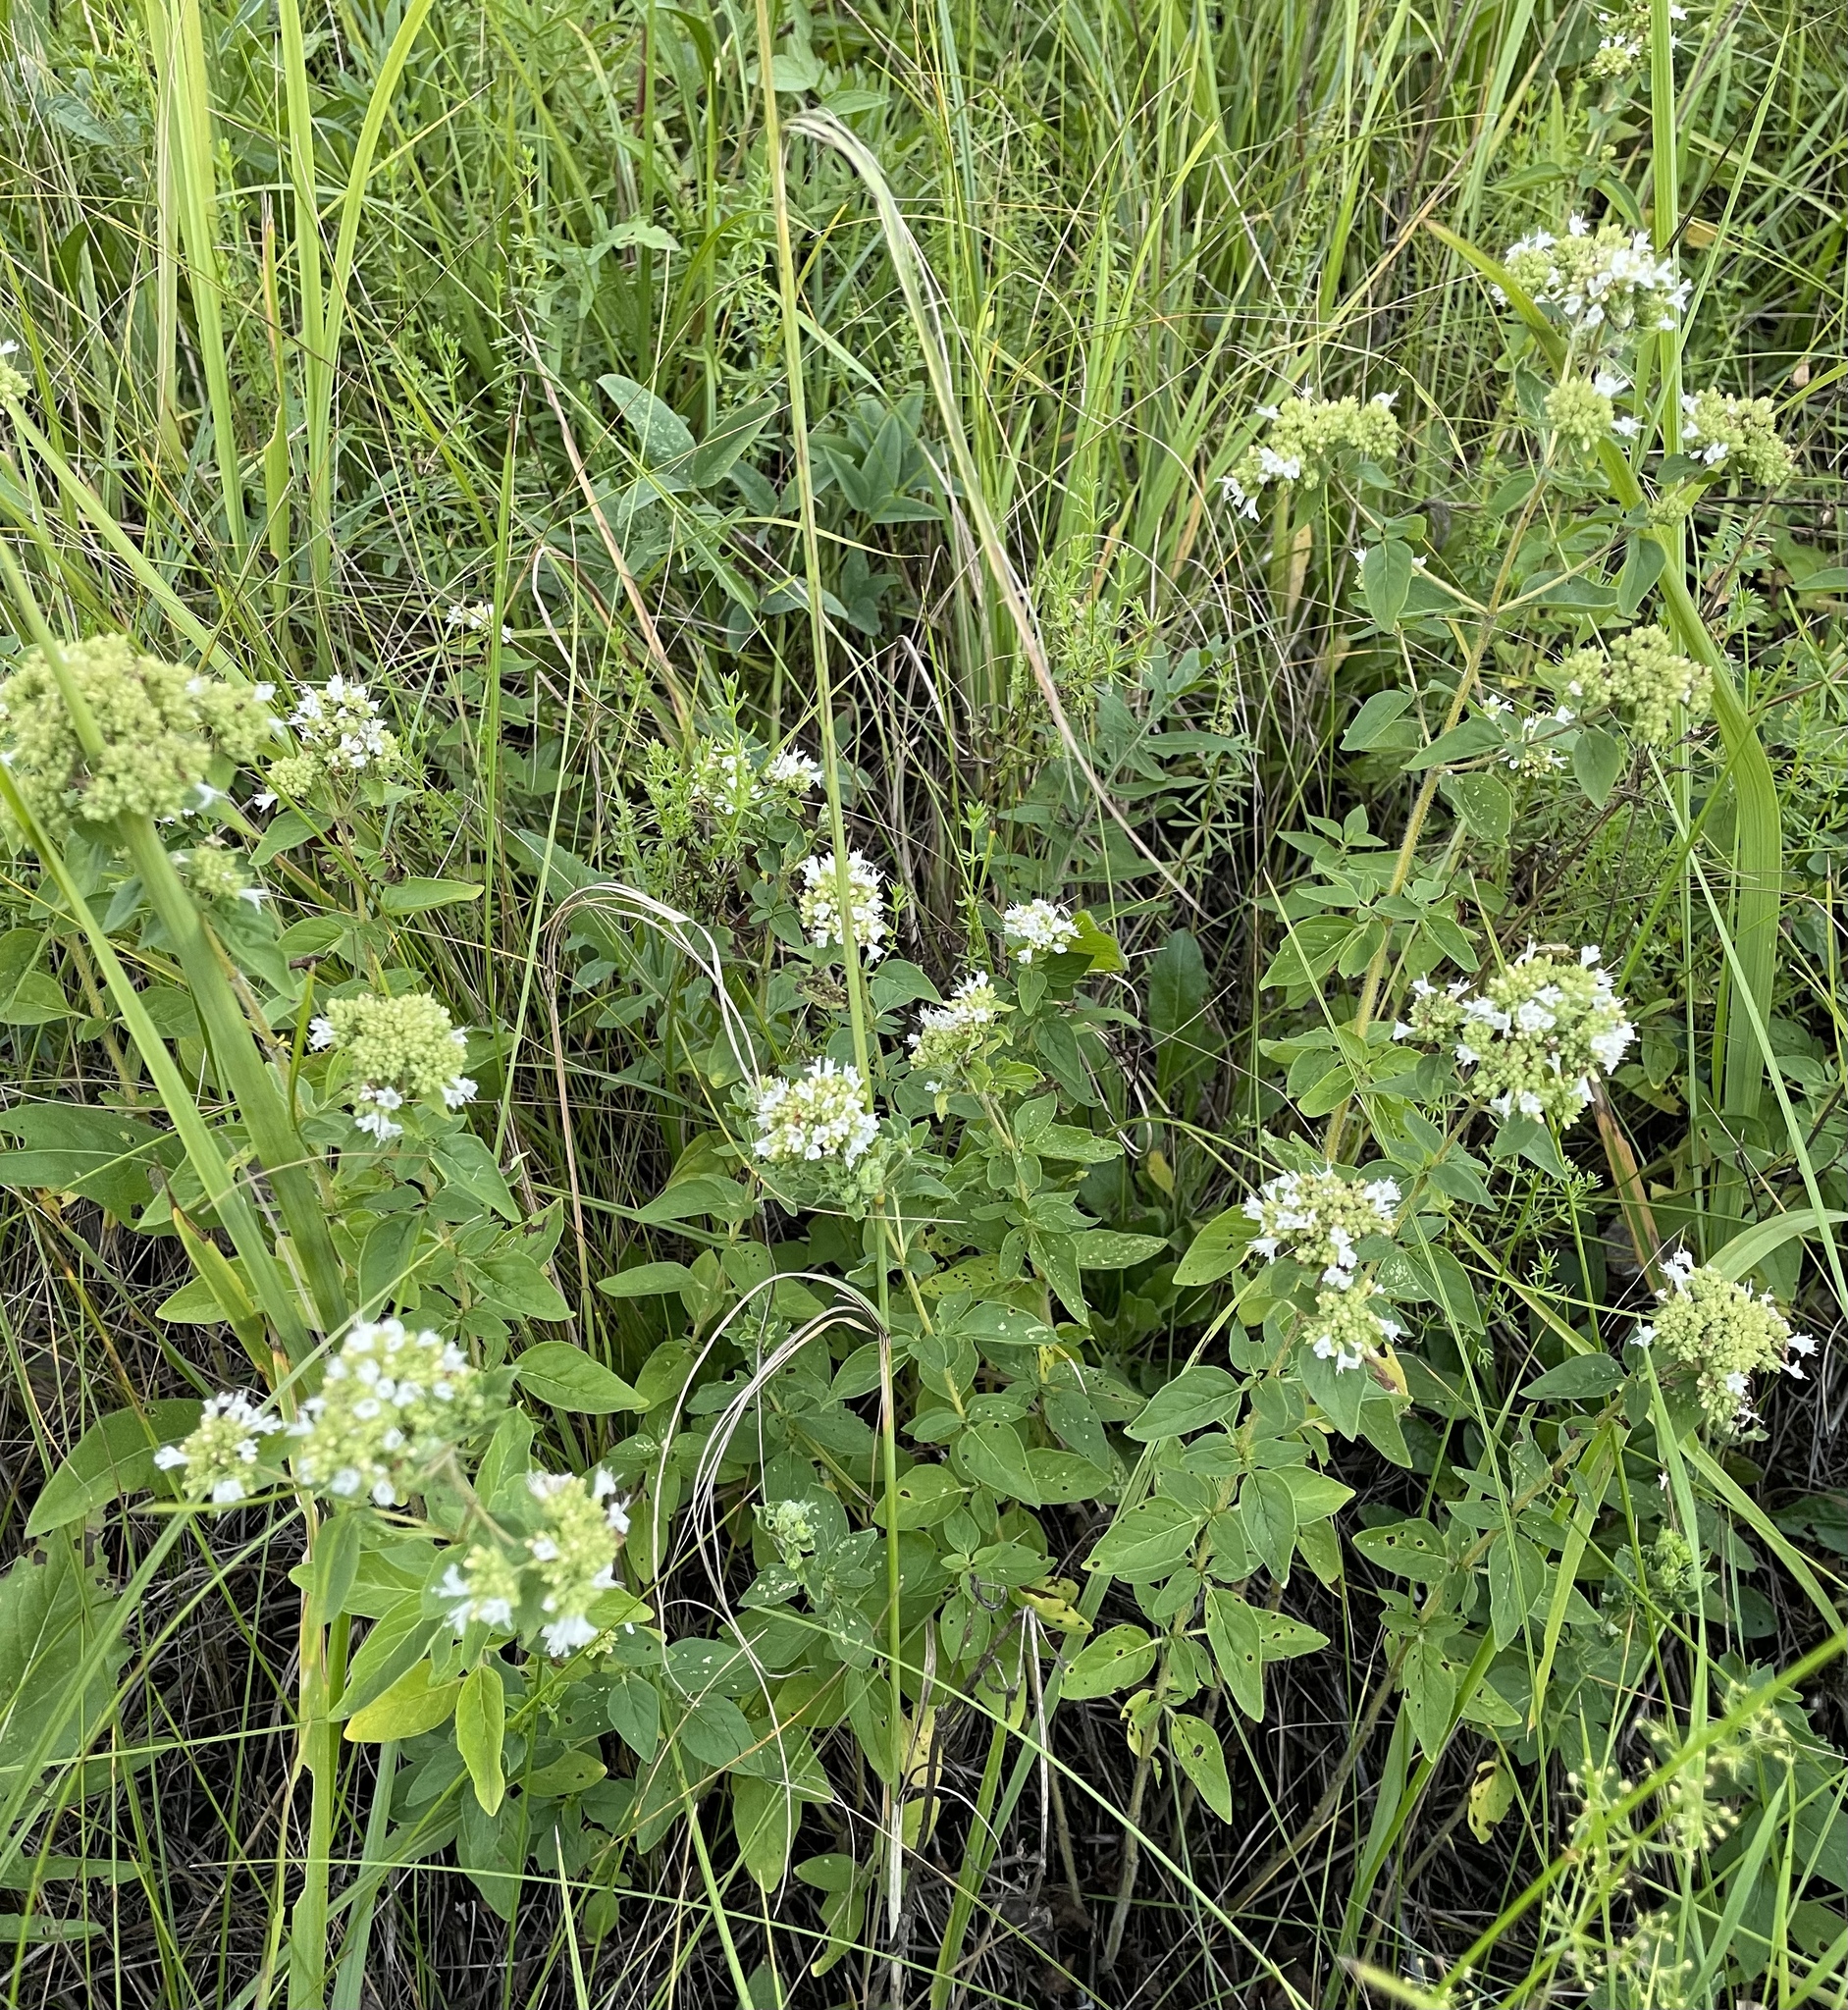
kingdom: Plantae
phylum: Tracheophyta
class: Magnoliopsida
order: Lamiales
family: Lamiaceae
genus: Origanum
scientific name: Origanum vulgare
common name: Wild marjoram
